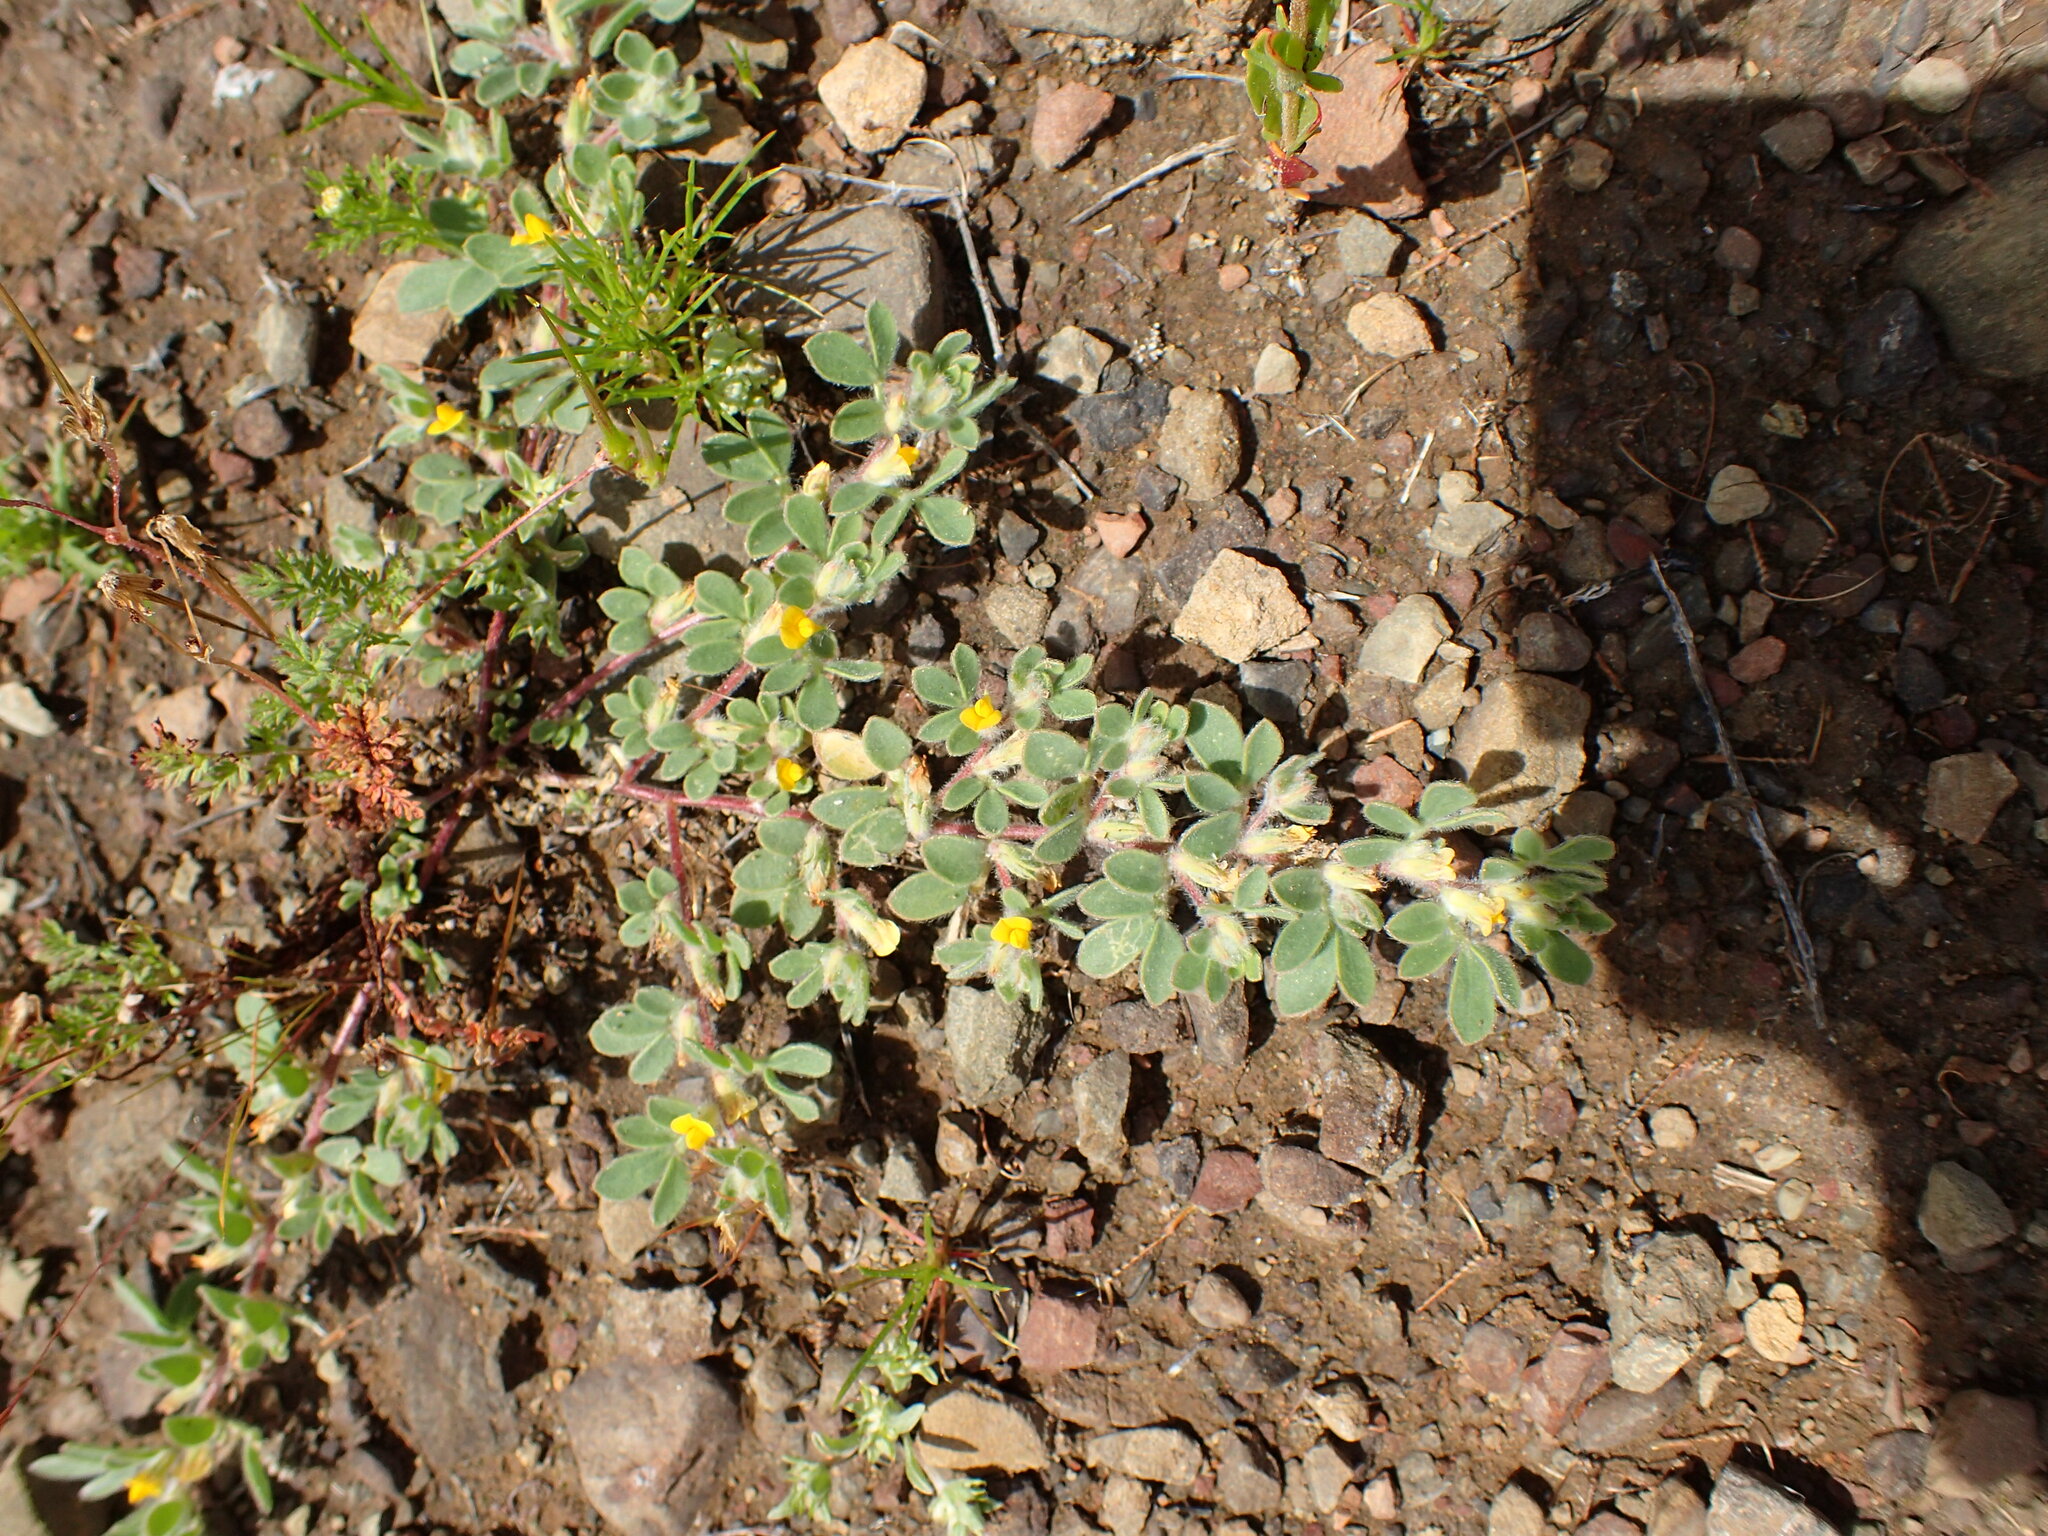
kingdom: Plantae
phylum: Tracheophyta
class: Magnoliopsida
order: Fabales
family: Fabaceae
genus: Acmispon
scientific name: Acmispon brachycarpus
